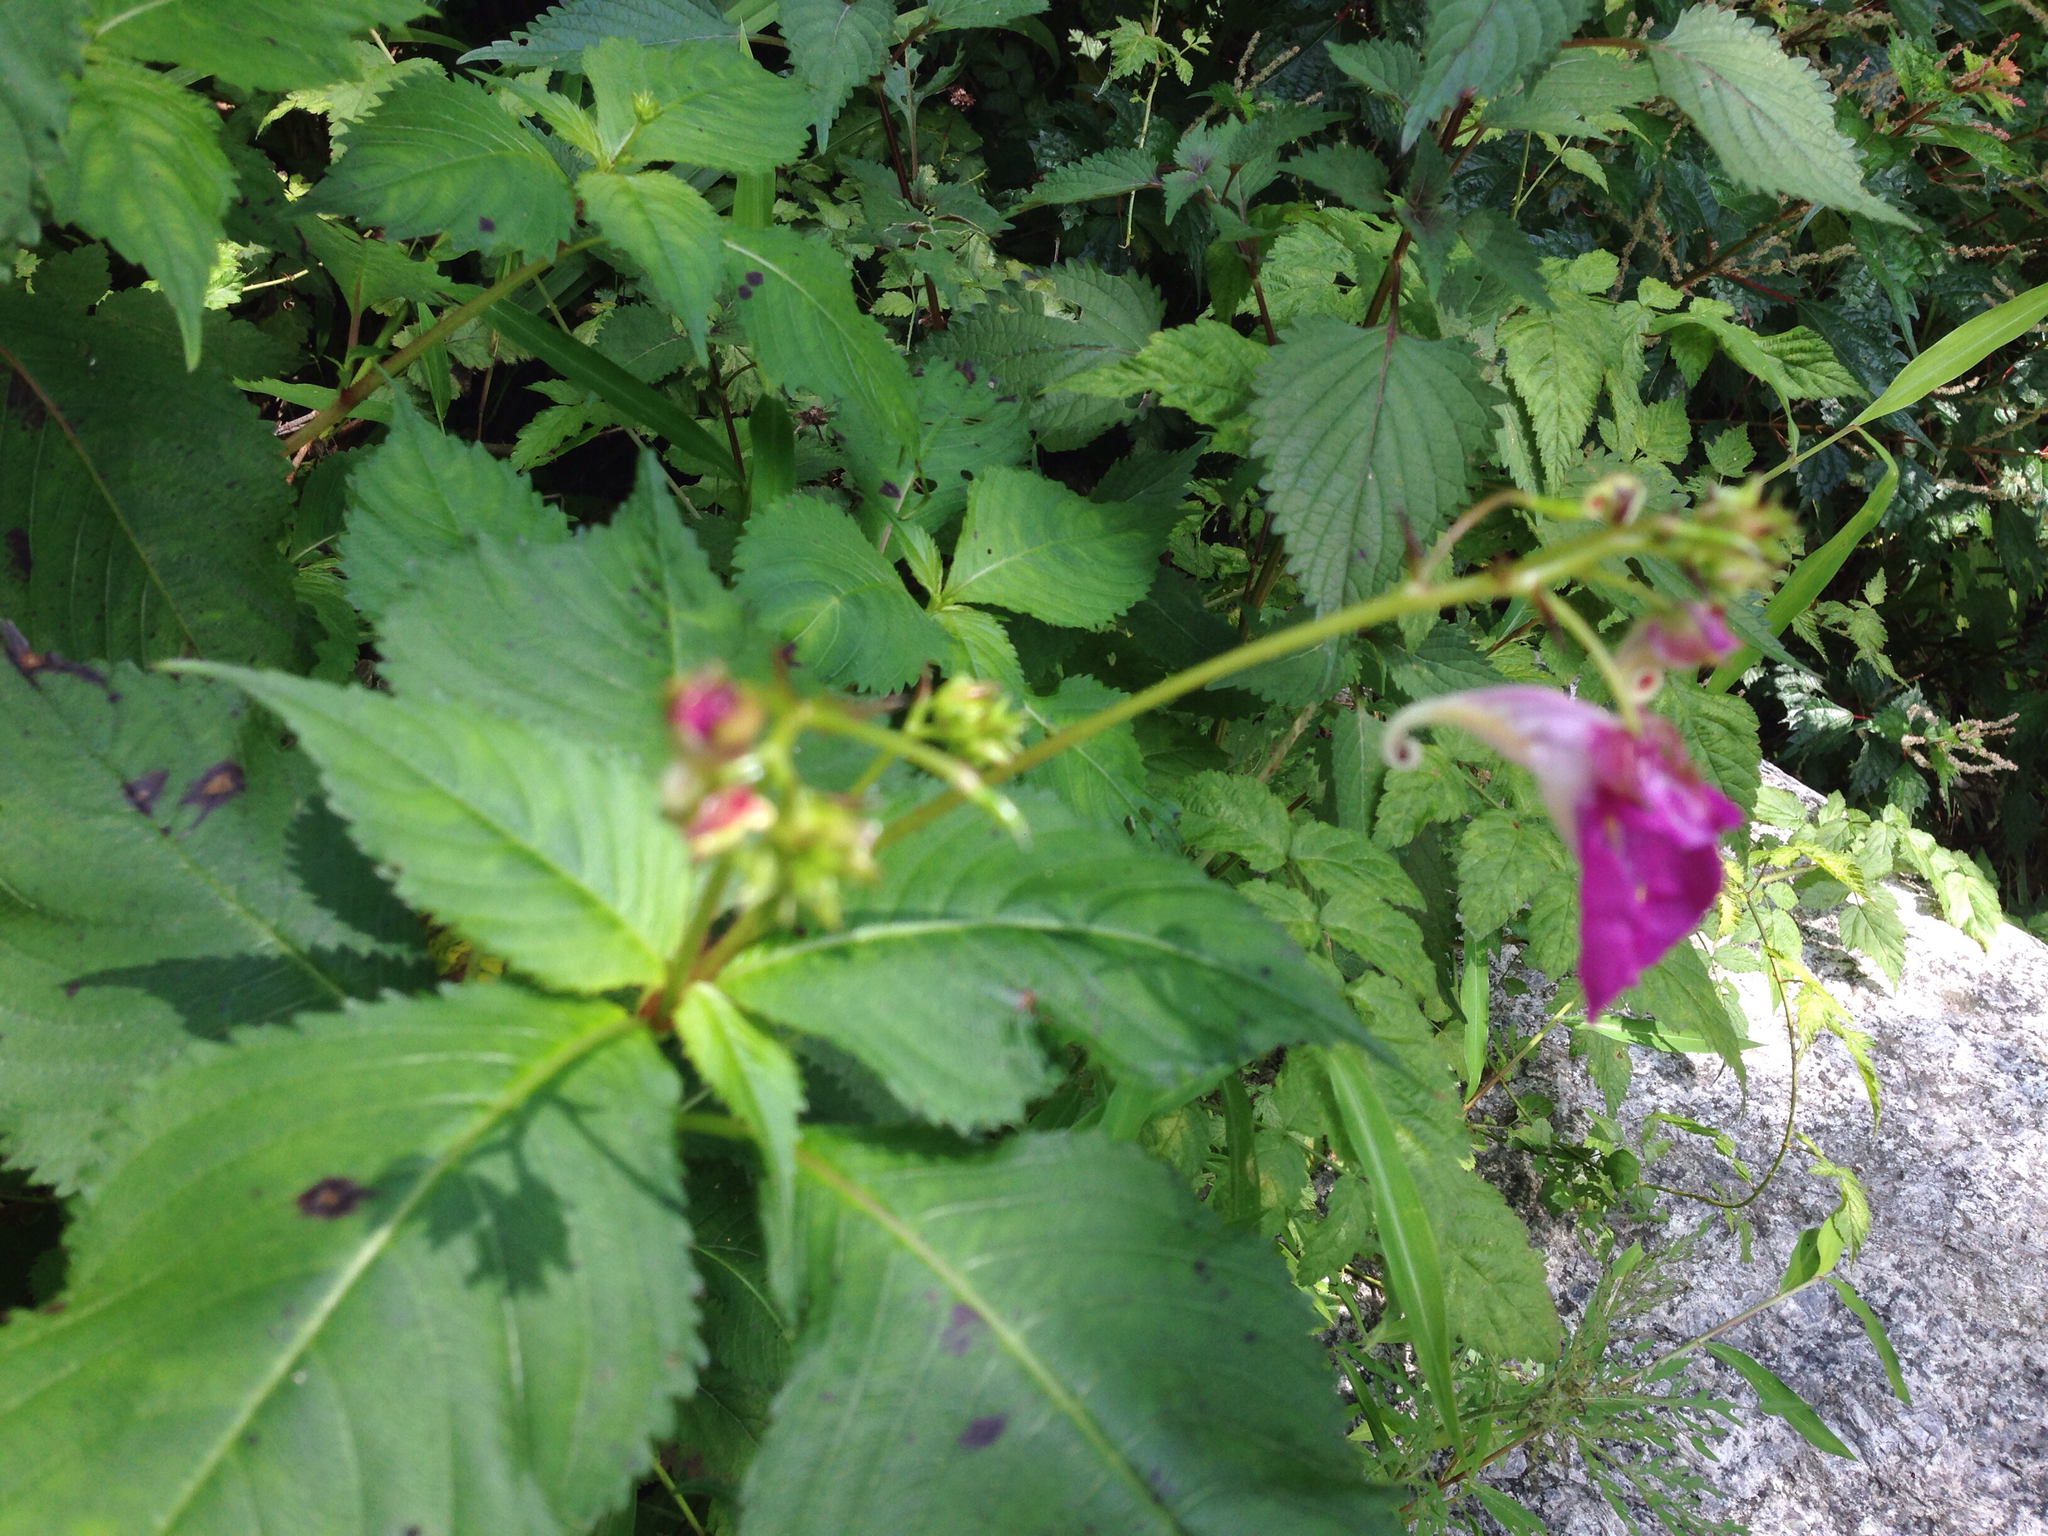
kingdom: Plantae
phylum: Tracheophyta
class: Magnoliopsida
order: Ericales
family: Balsaminaceae
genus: Impatiens
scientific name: Impatiens textorii
